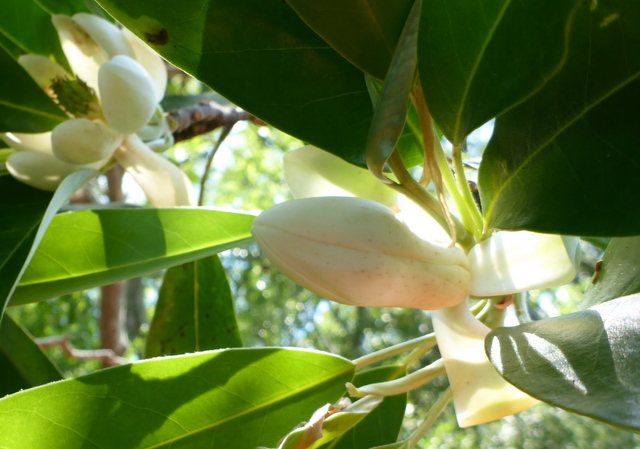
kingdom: Plantae
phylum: Tracheophyta
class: Magnoliopsida
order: Magnoliales
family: Magnoliaceae
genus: Magnolia
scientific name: Magnolia virginiana
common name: Swamp bay
